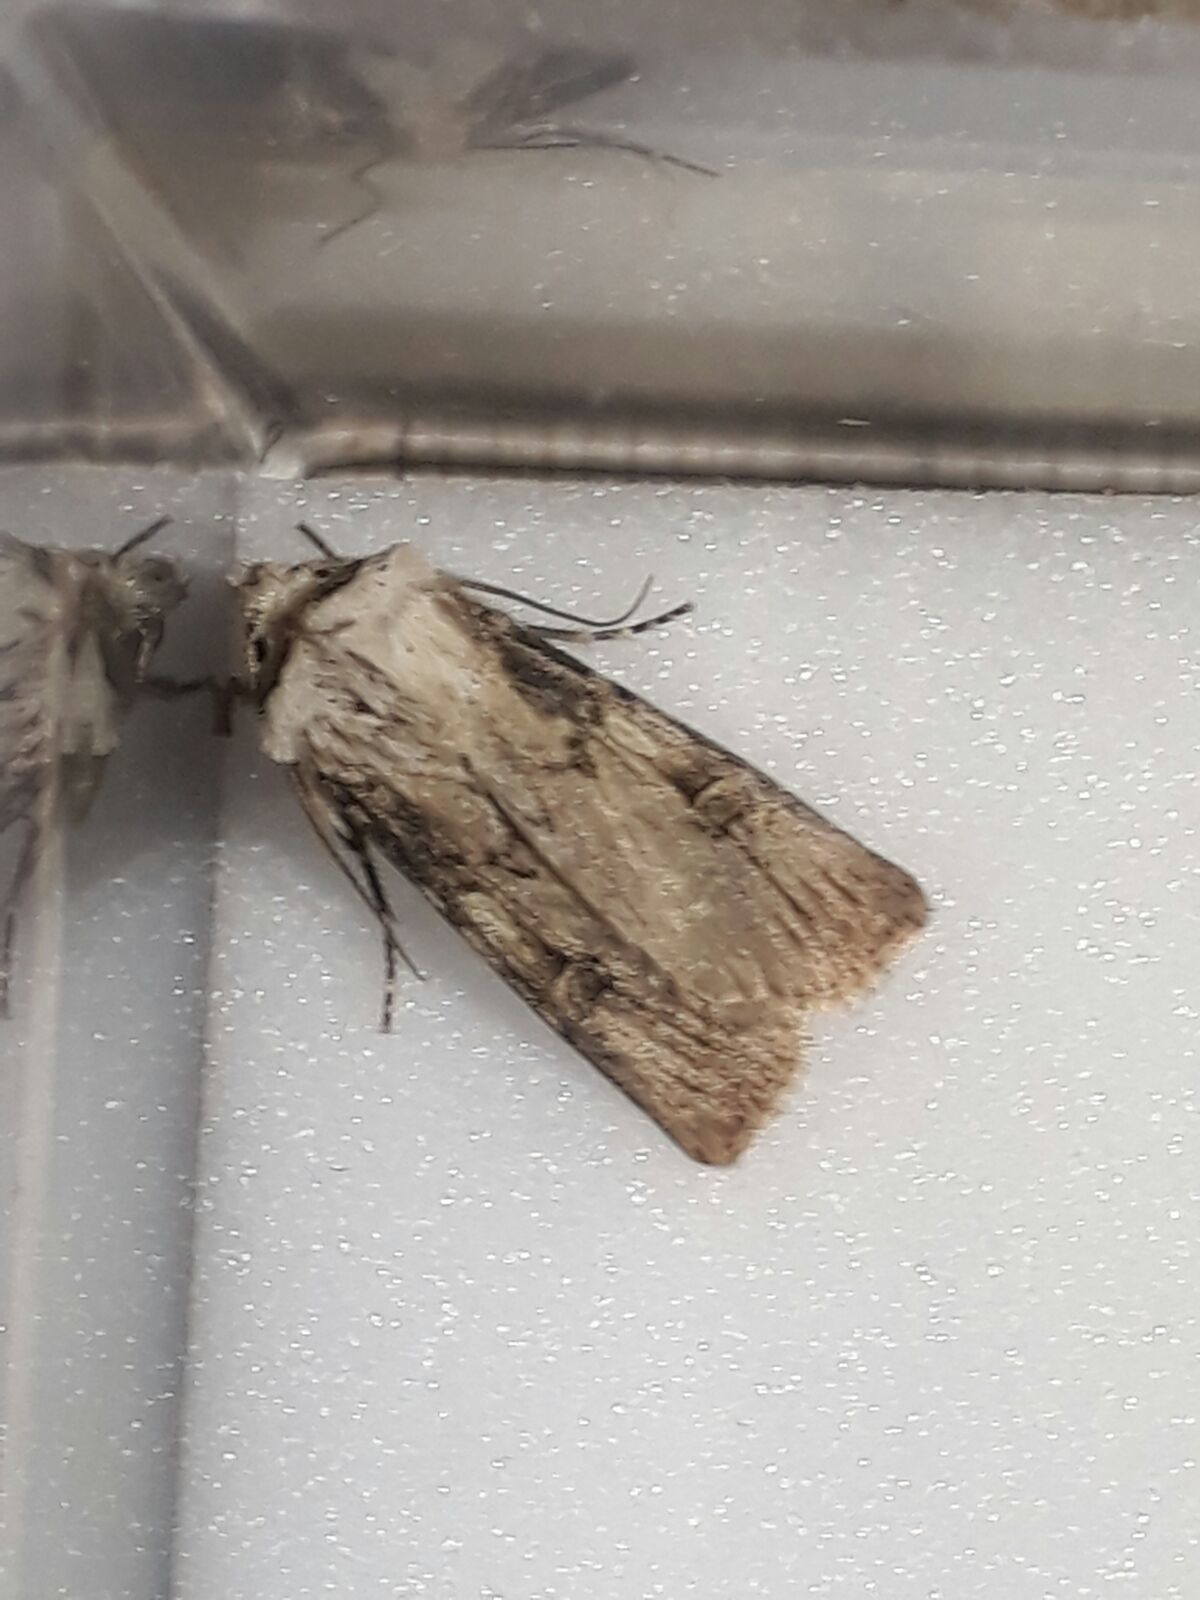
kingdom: Animalia
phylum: Arthropoda
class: Insecta
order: Lepidoptera
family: Noctuidae
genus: Agrotis
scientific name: Agrotis puta
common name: Shuttle-shaped dart
